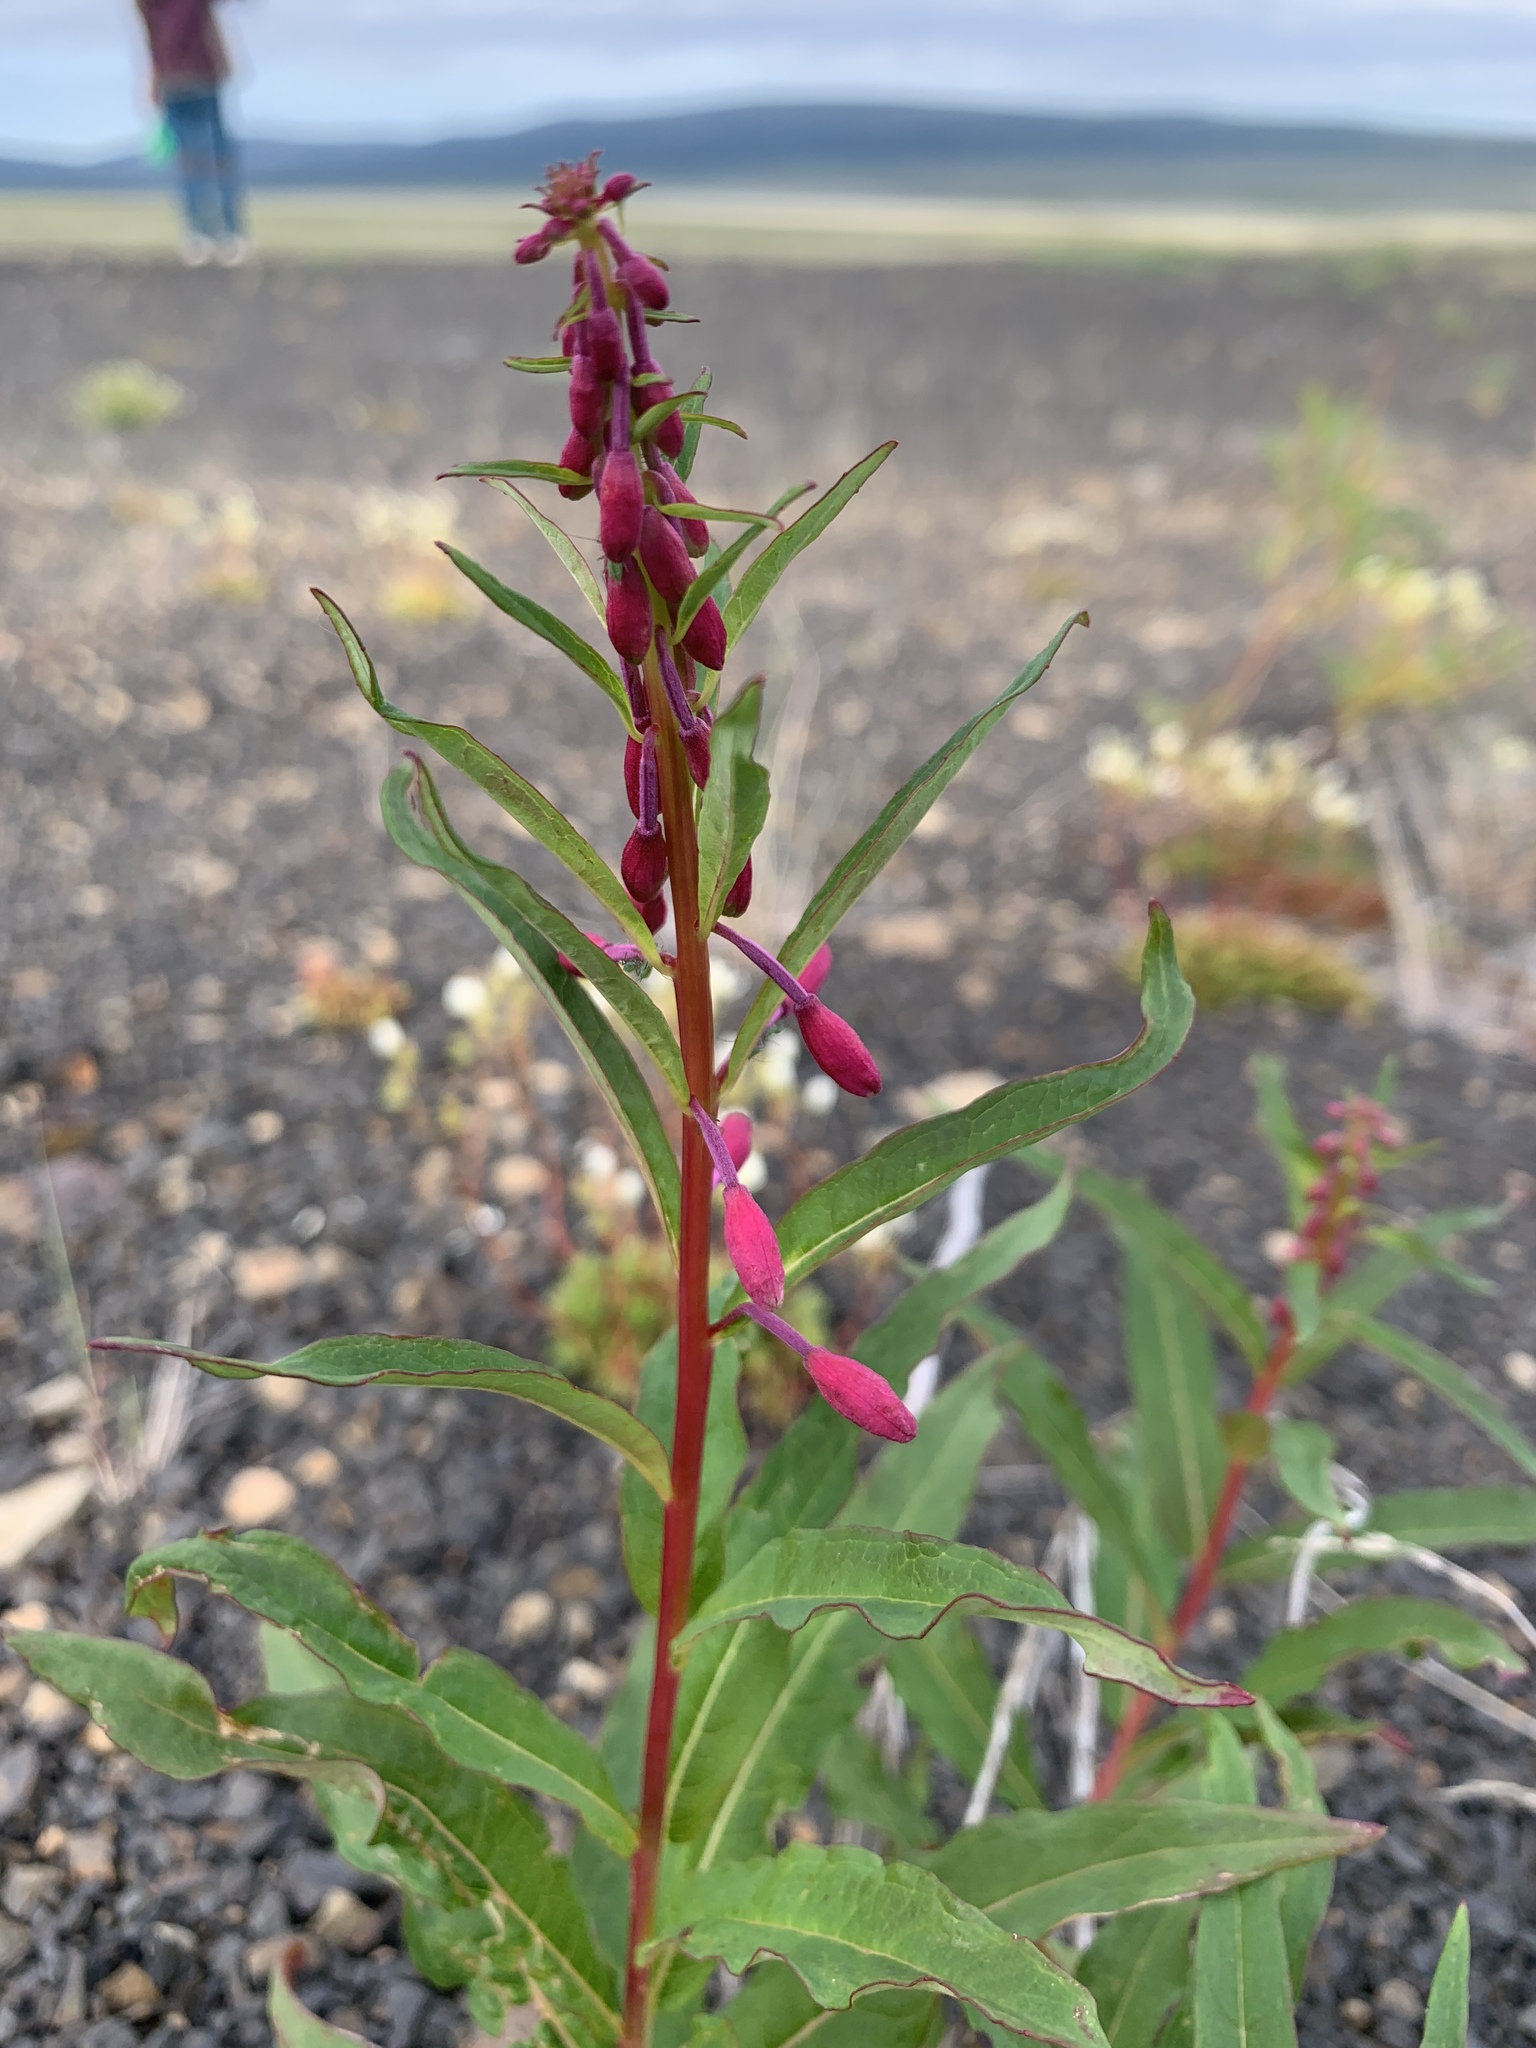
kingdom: Plantae
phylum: Tracheophyta
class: Magnoliopsida
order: Myrtales
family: Onagraceae
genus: Chamaenerion
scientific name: Chamaenerion angustifolium
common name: Fireweed
